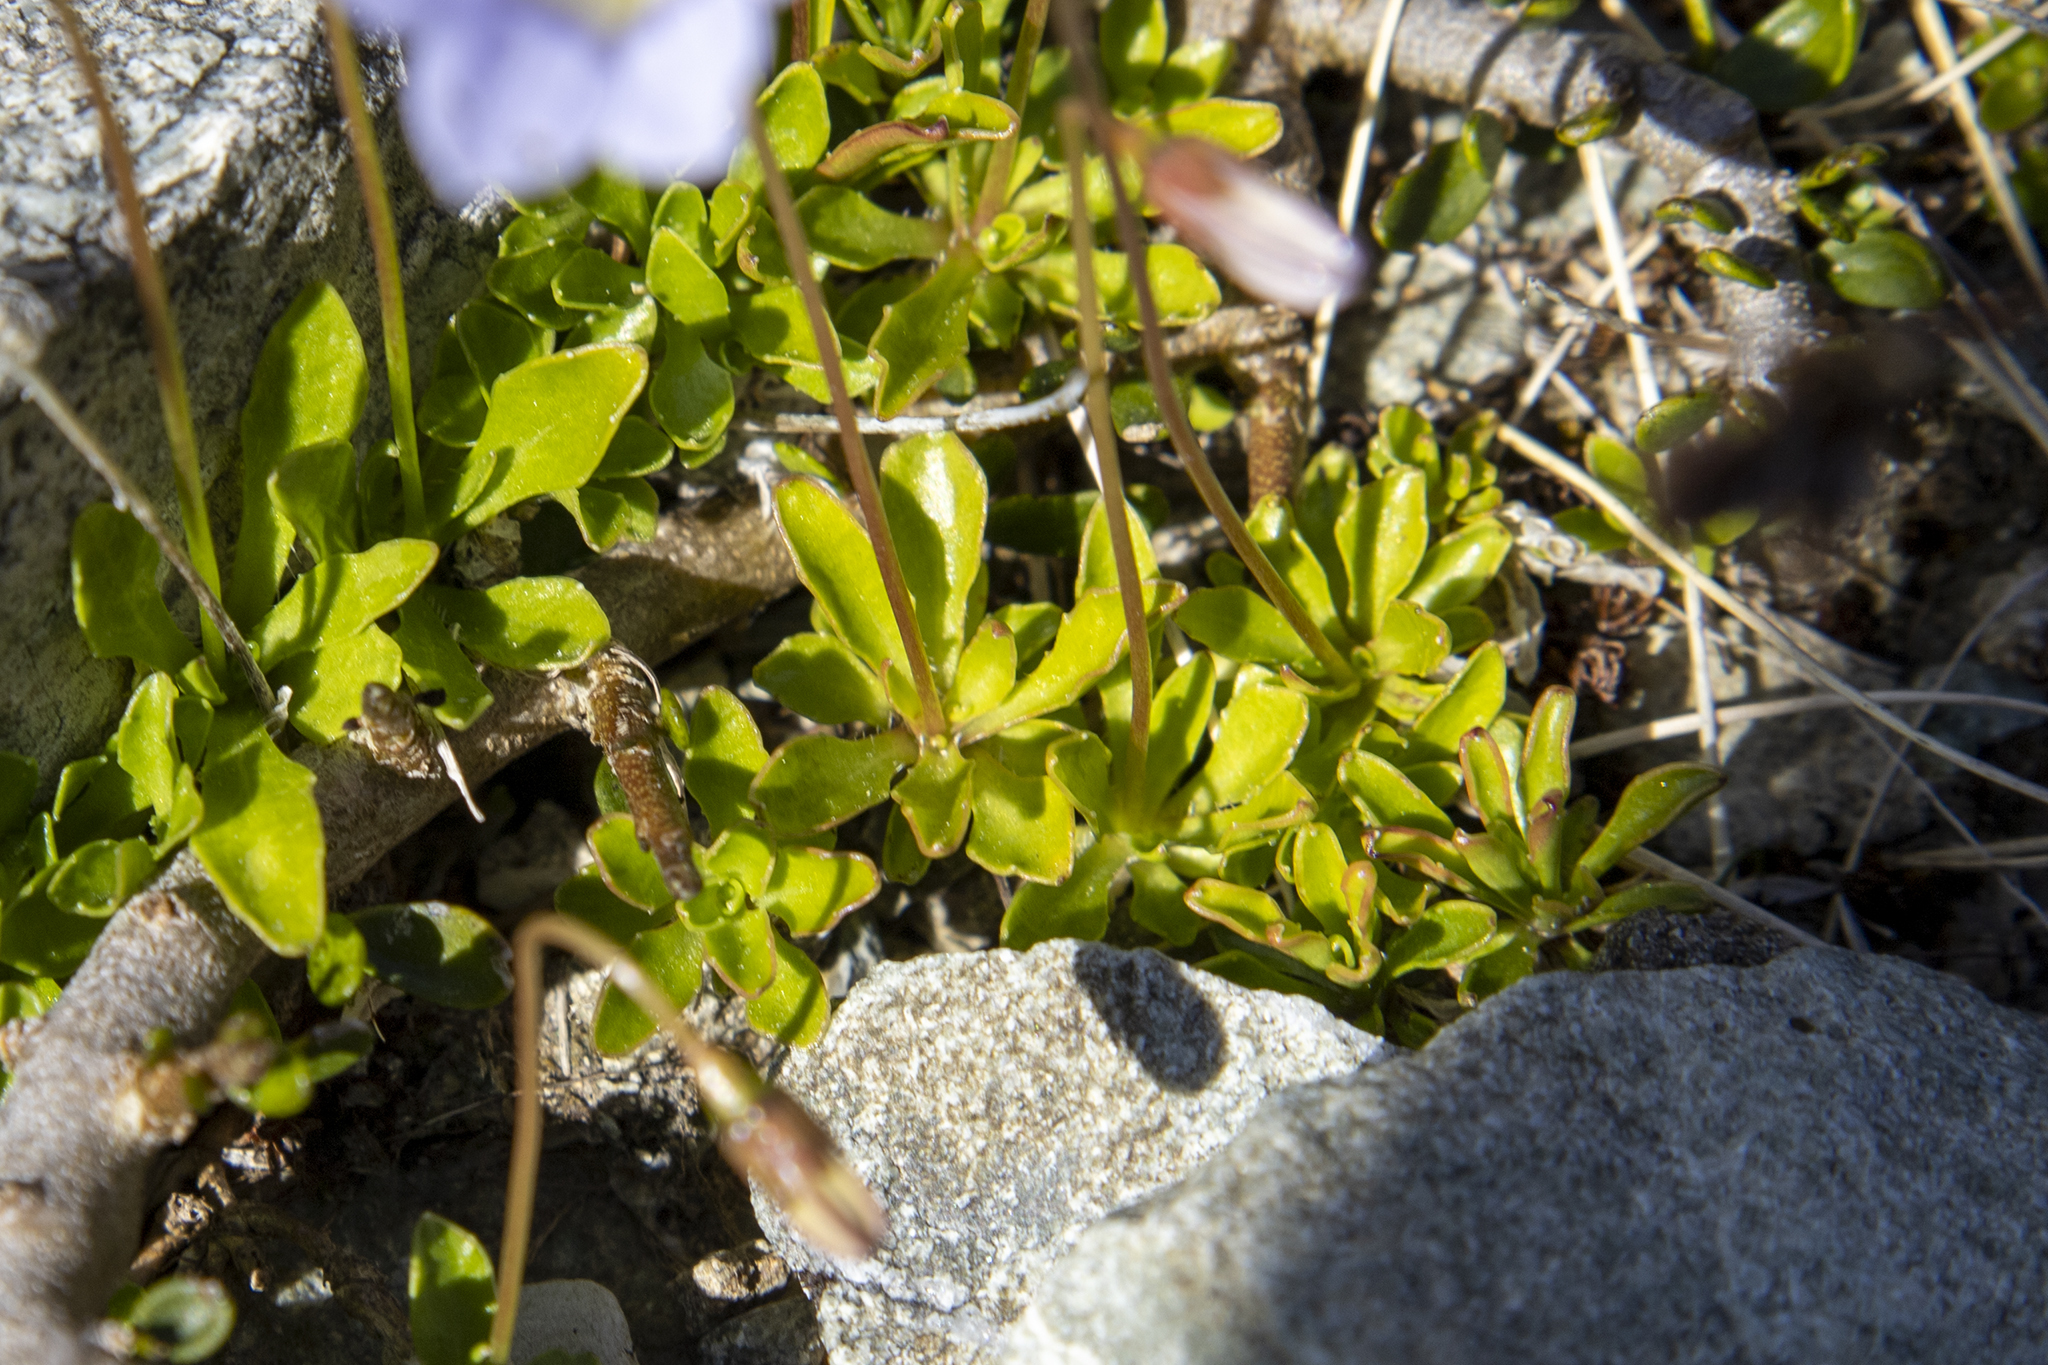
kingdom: Plantae
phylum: Tracheophyta
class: Magnoliopsida
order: Asterales
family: Campanulaceae
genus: Wahlenbergia
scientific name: Wahlenbergia albomarginata
